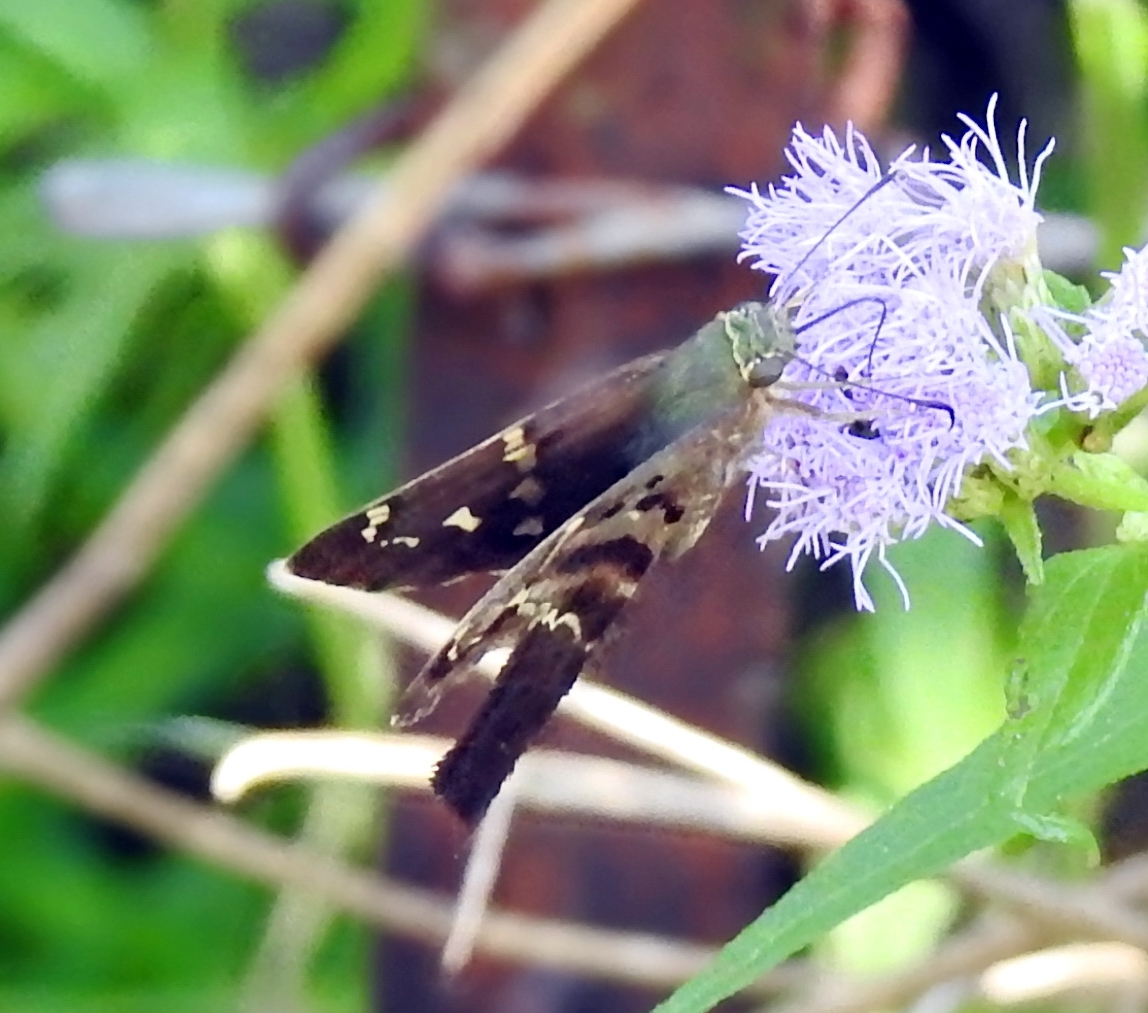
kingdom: Animalia
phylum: Arthropoda
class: Insecta
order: Lepidoptera
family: Hesperiidae
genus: Urbanus
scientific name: Urbanus proteus
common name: Long-tailed skipper
